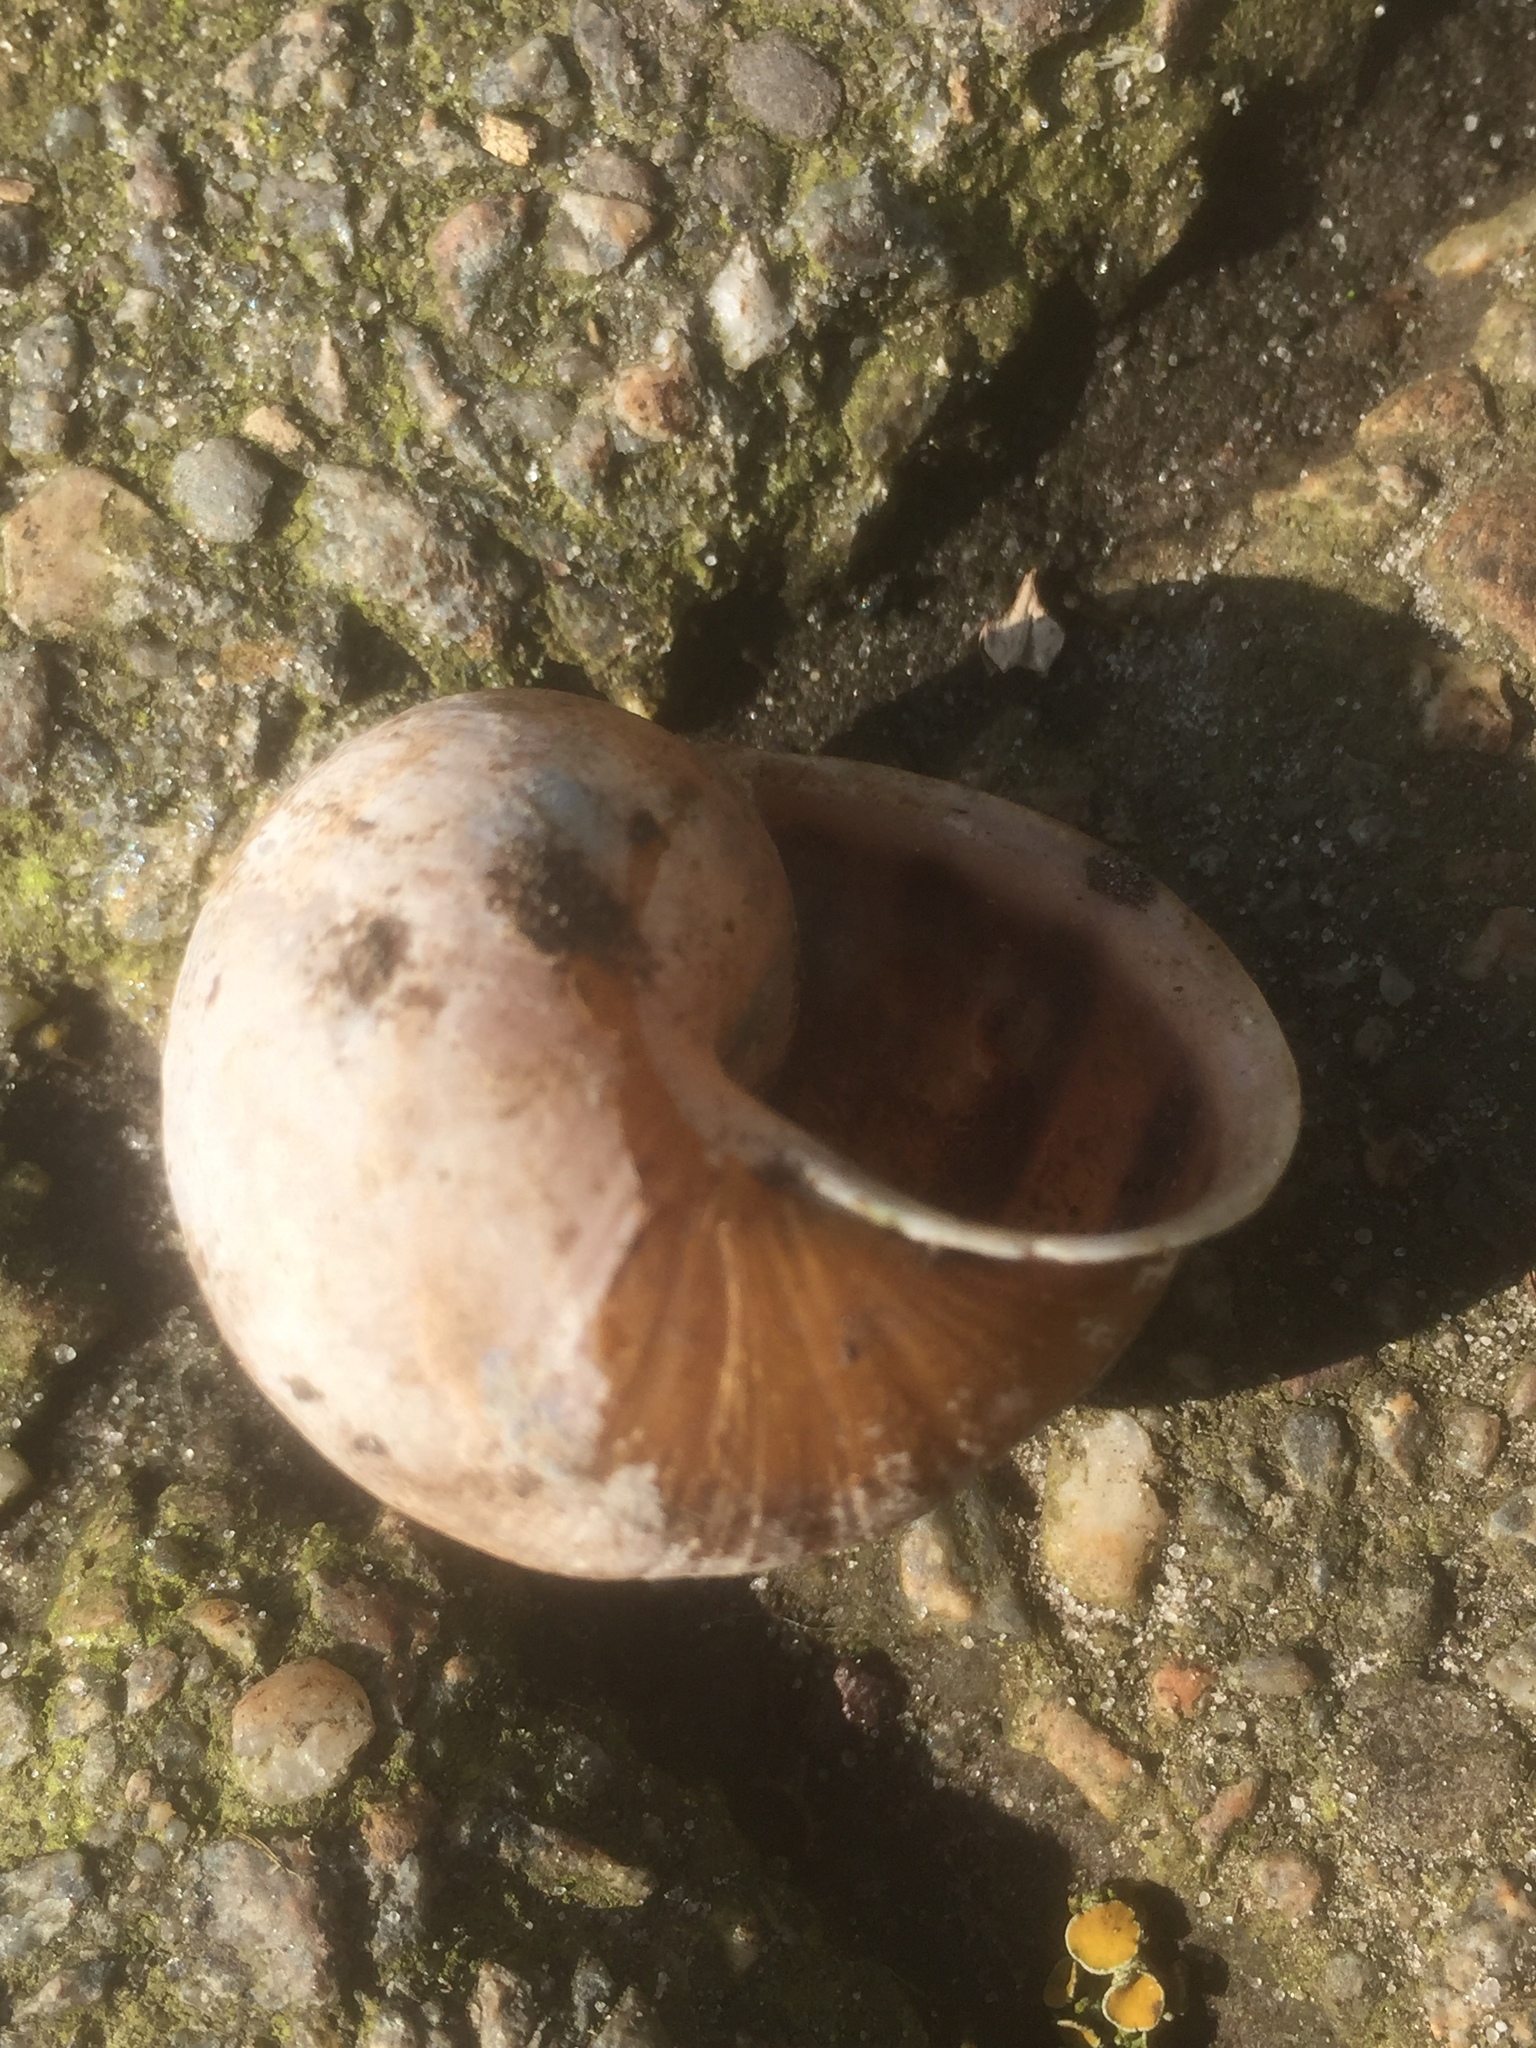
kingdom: Animalia
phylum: Mollusca
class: Gastropoda
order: Stylommatophora
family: Helicidae
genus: Cornu
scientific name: Cornu aspersum
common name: Brown garden snail
